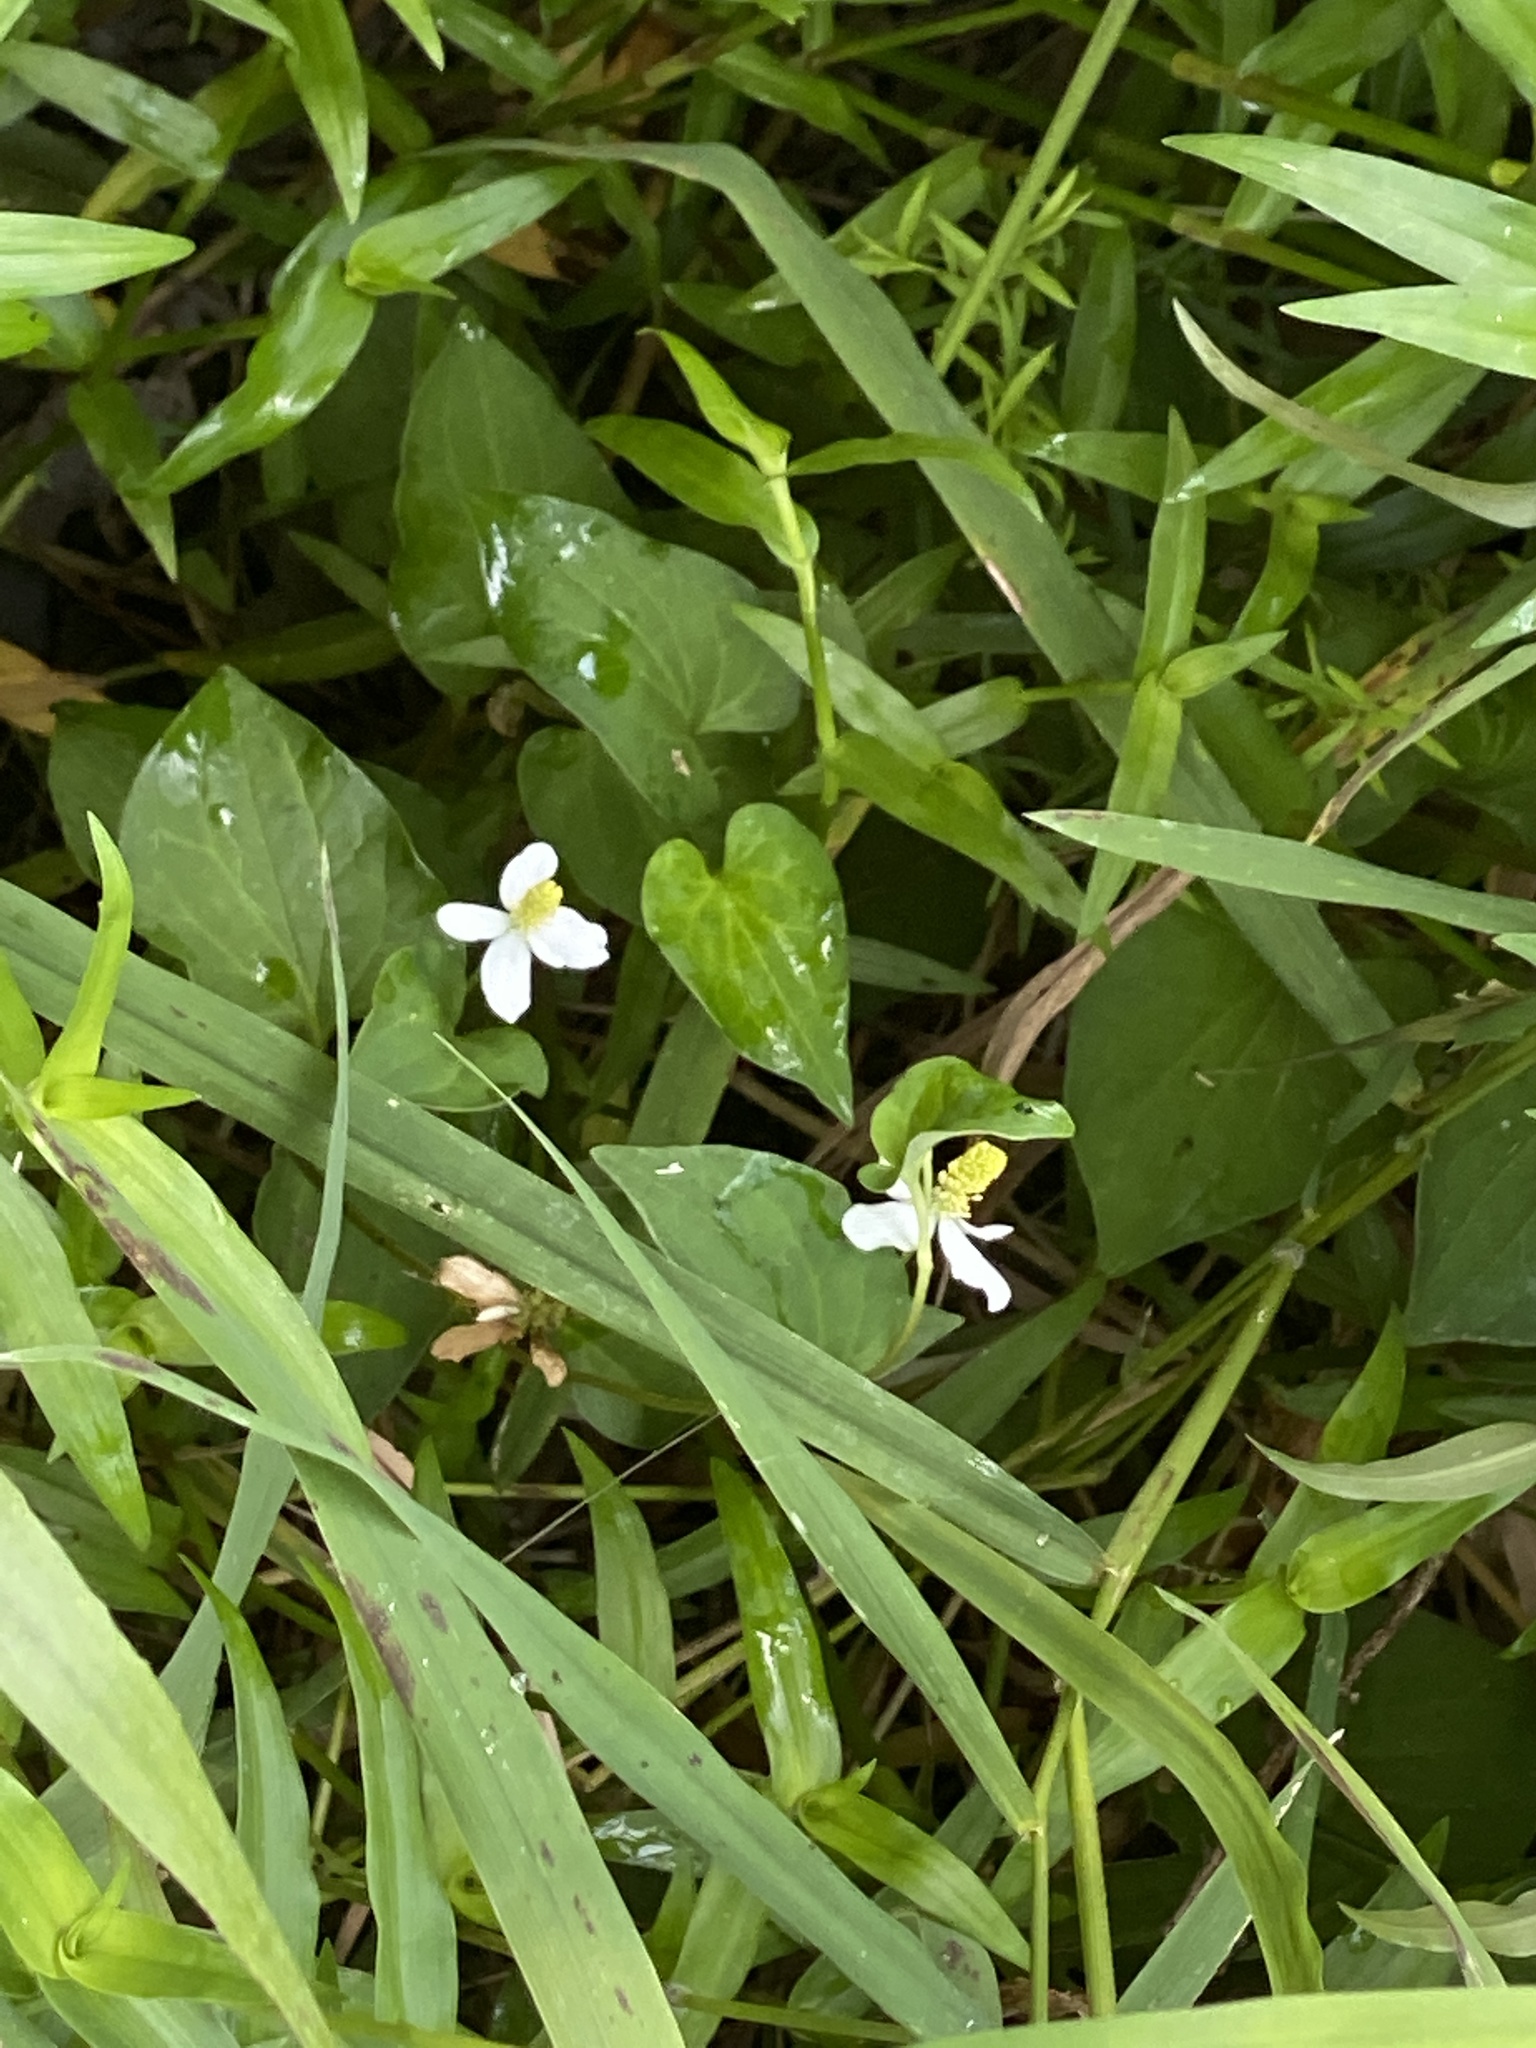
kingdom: Plantae
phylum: Tracheophyta
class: Magnoliopsida
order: Piperales
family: Saururaceae
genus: Houttuynia
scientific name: Houttuynia cordata
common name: Chameleon
